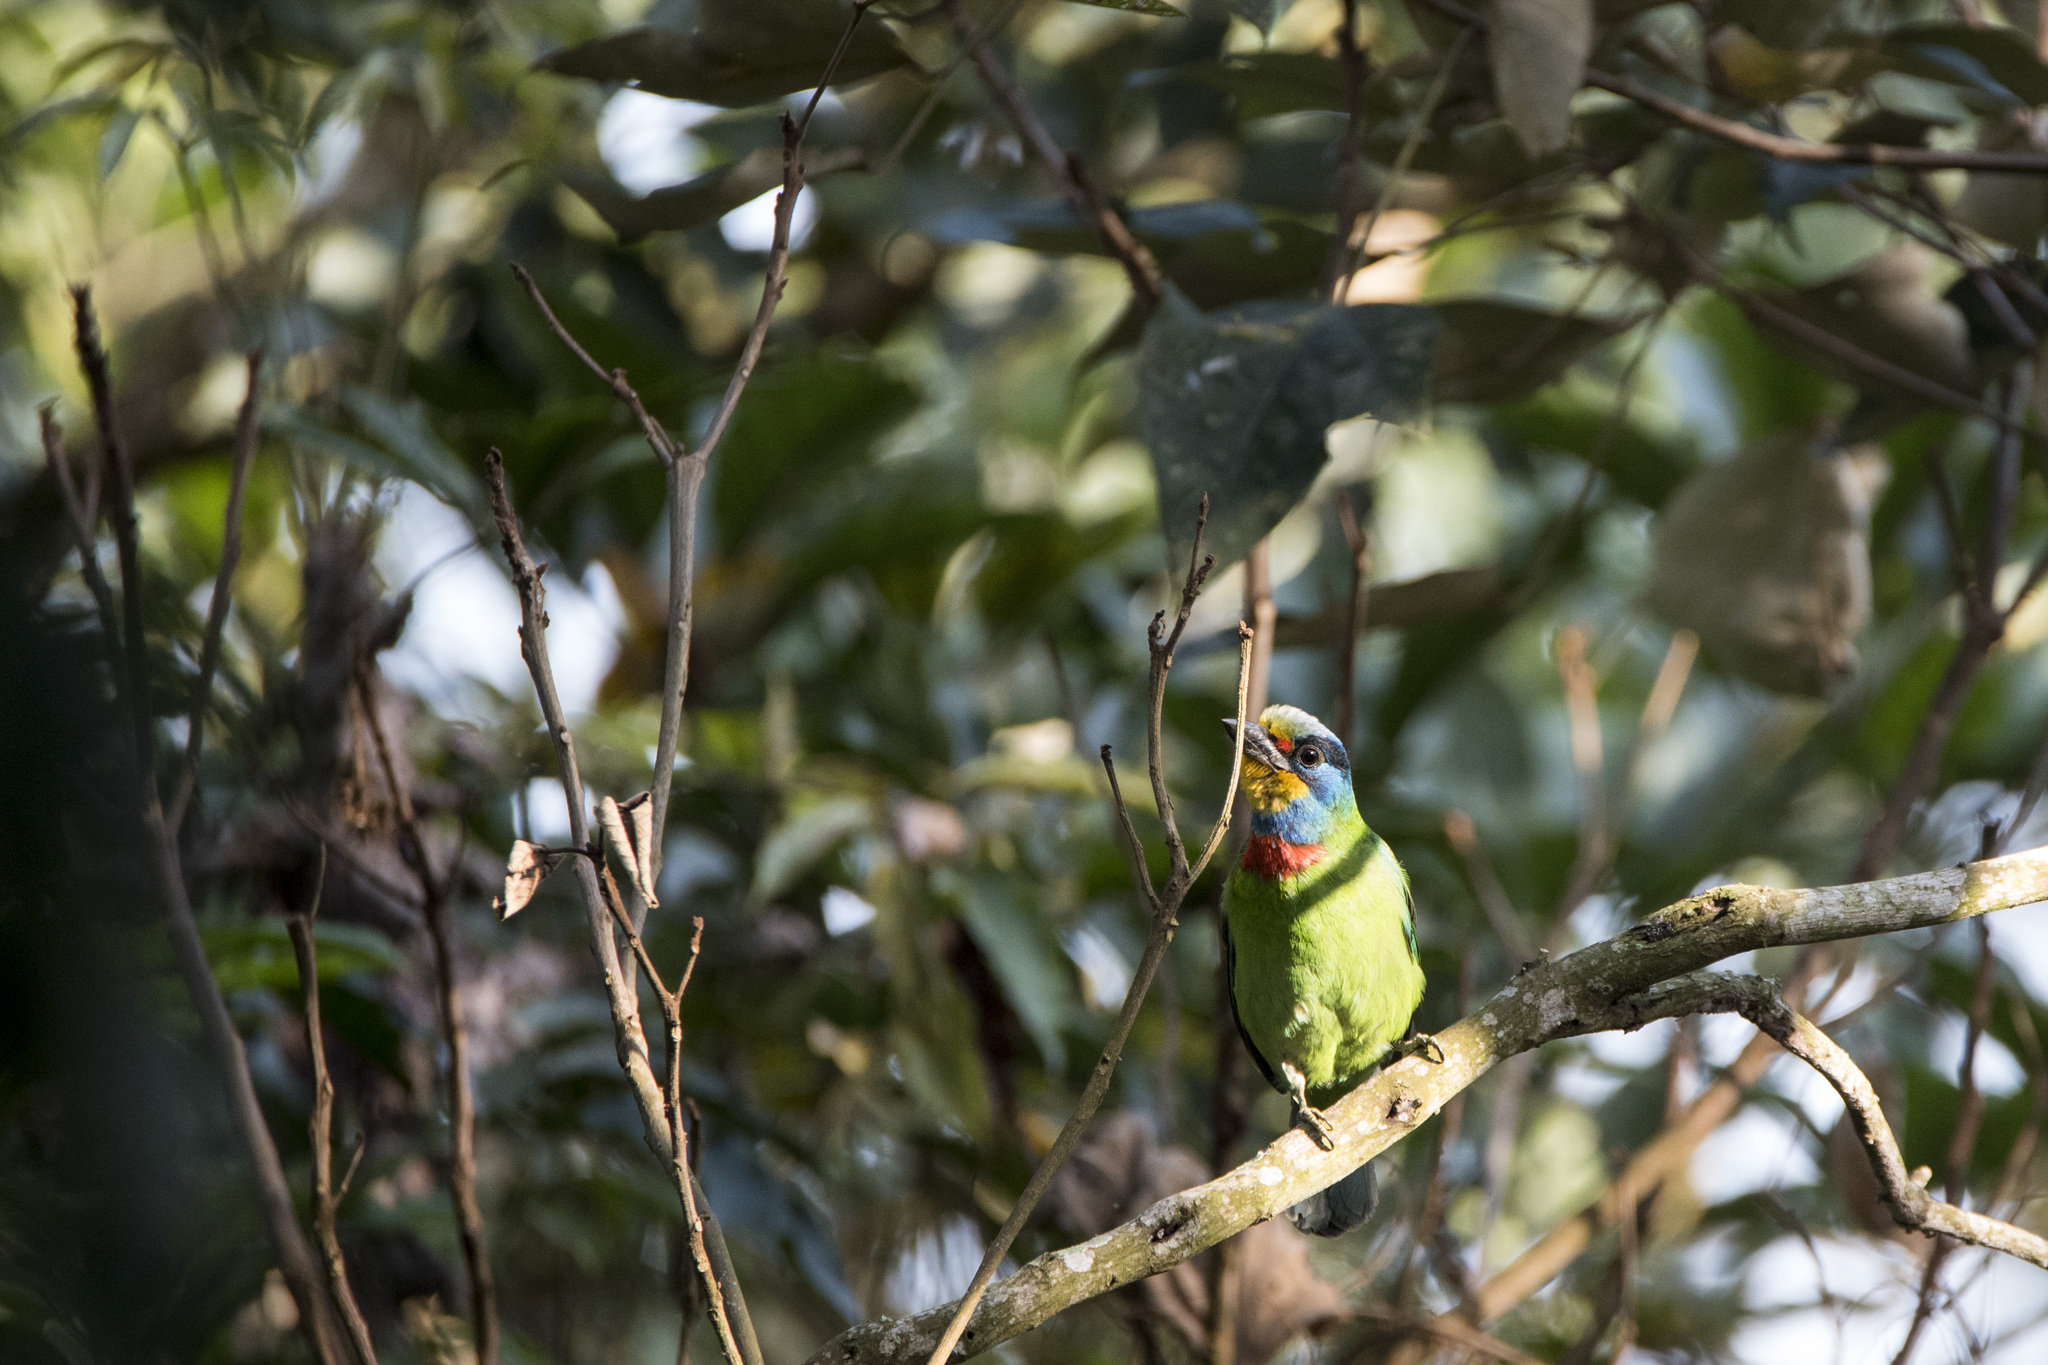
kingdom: Animalia
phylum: Chordata
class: Aves
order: Piciformes
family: Megalaimidae
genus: Psilopogon
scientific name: Psilopogon nuchalis
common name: Taiwan barbet
